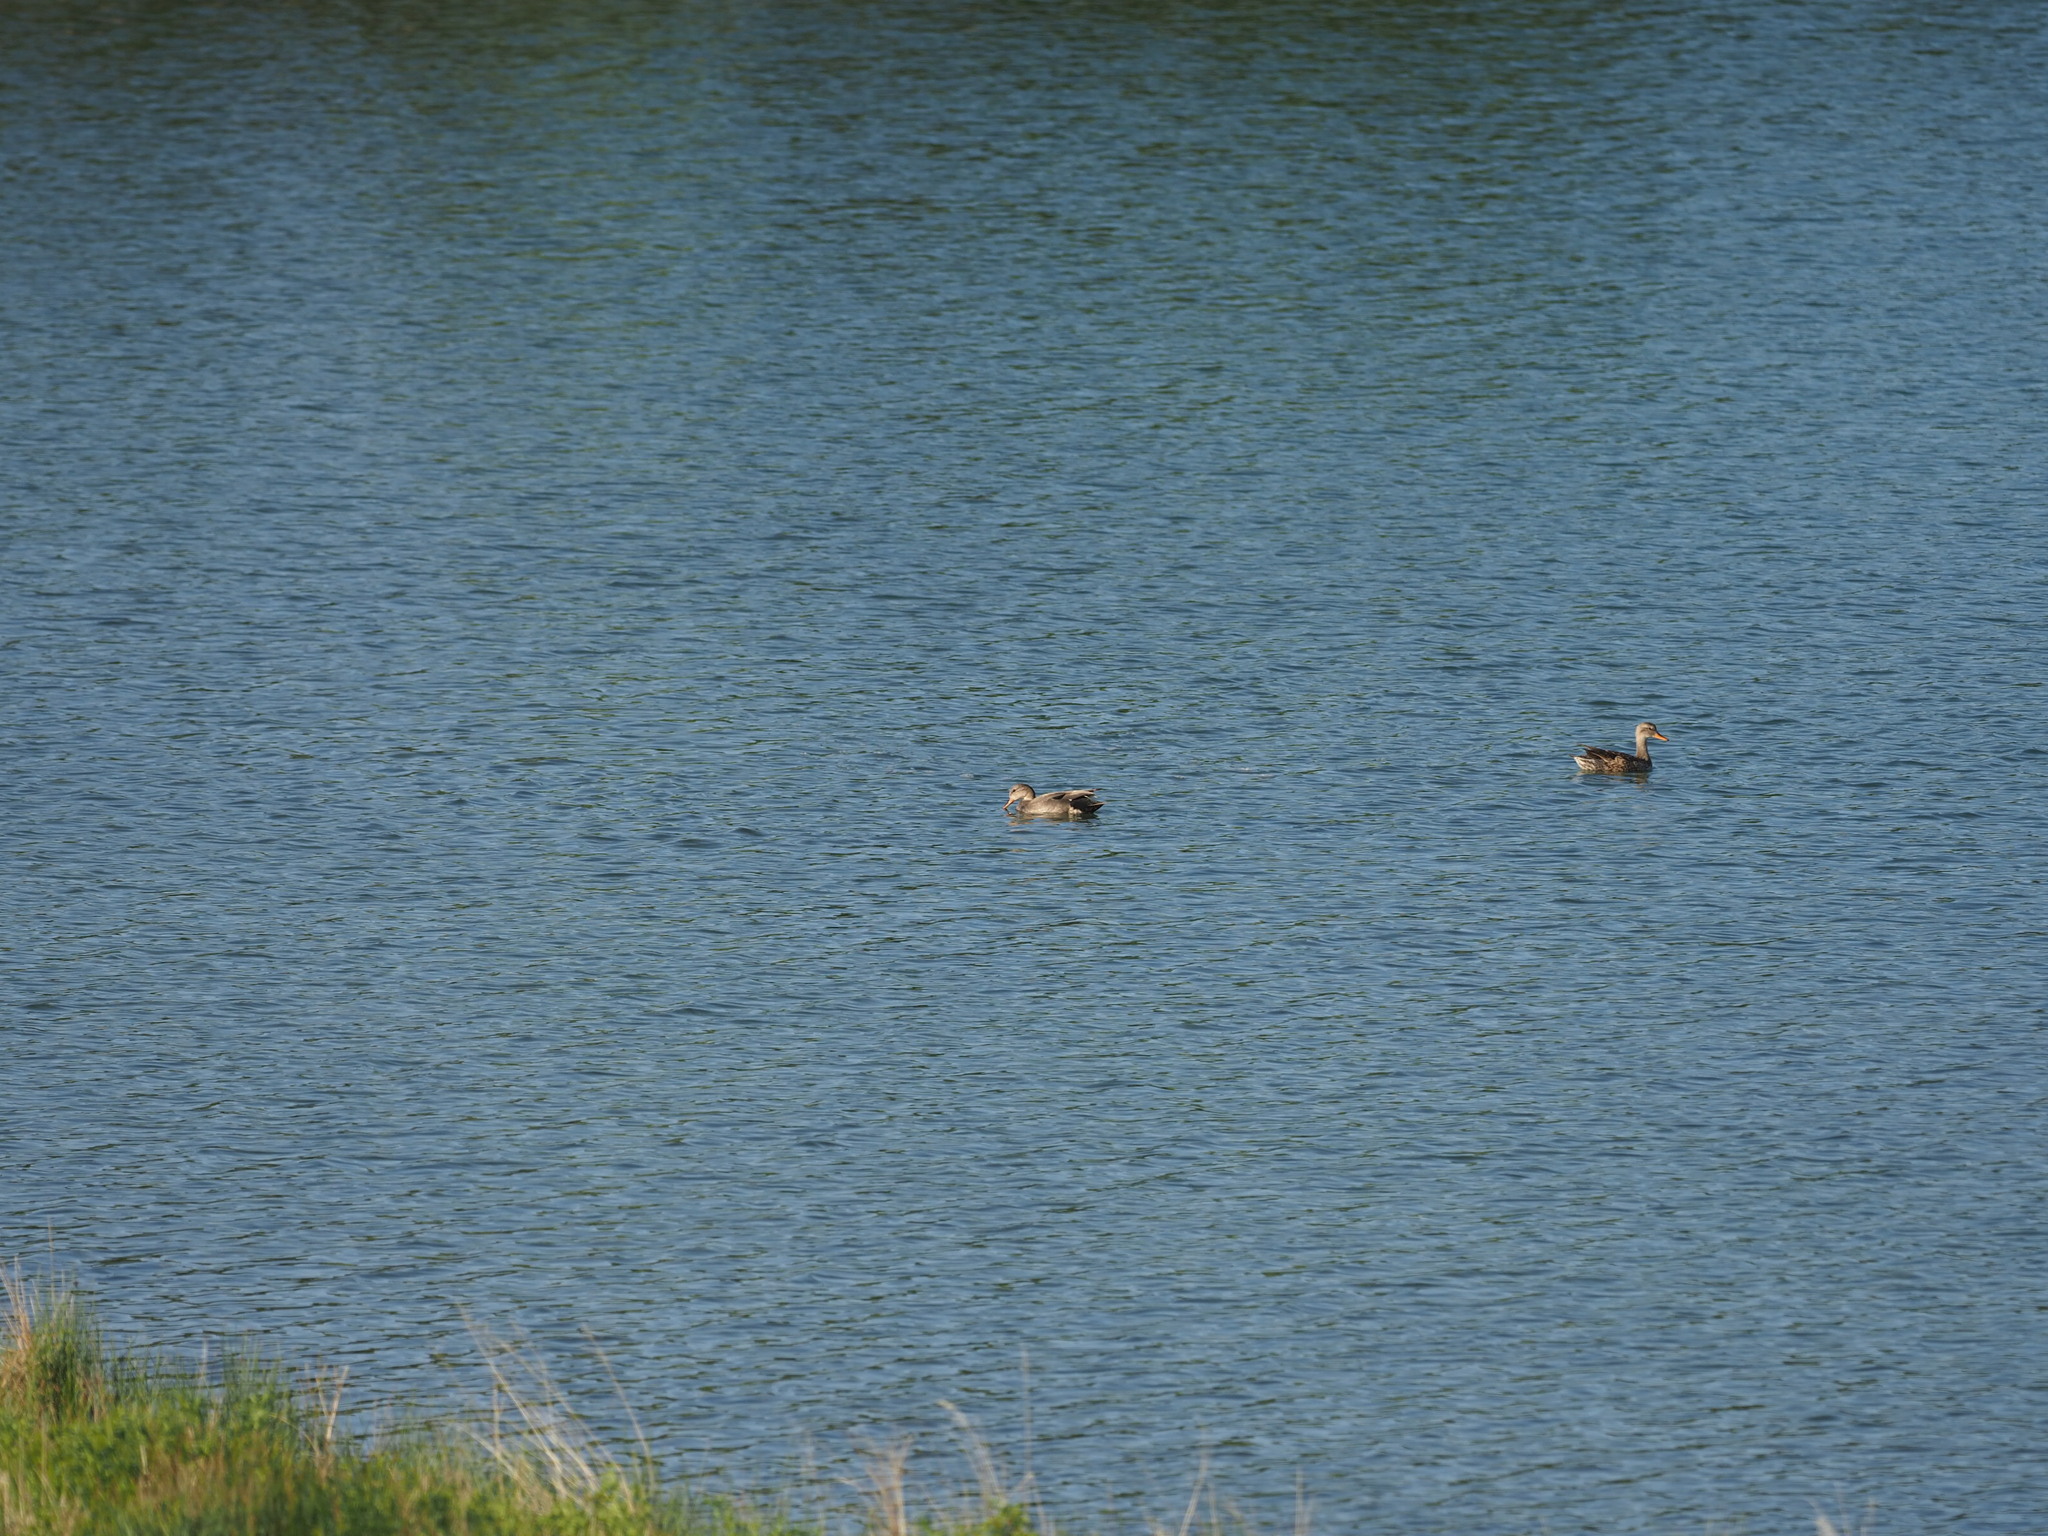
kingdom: Animalia
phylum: Chordata
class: Aves
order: Anseriformes
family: Anatidae
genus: Mareca
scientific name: Mareca strepera
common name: Gadwall
